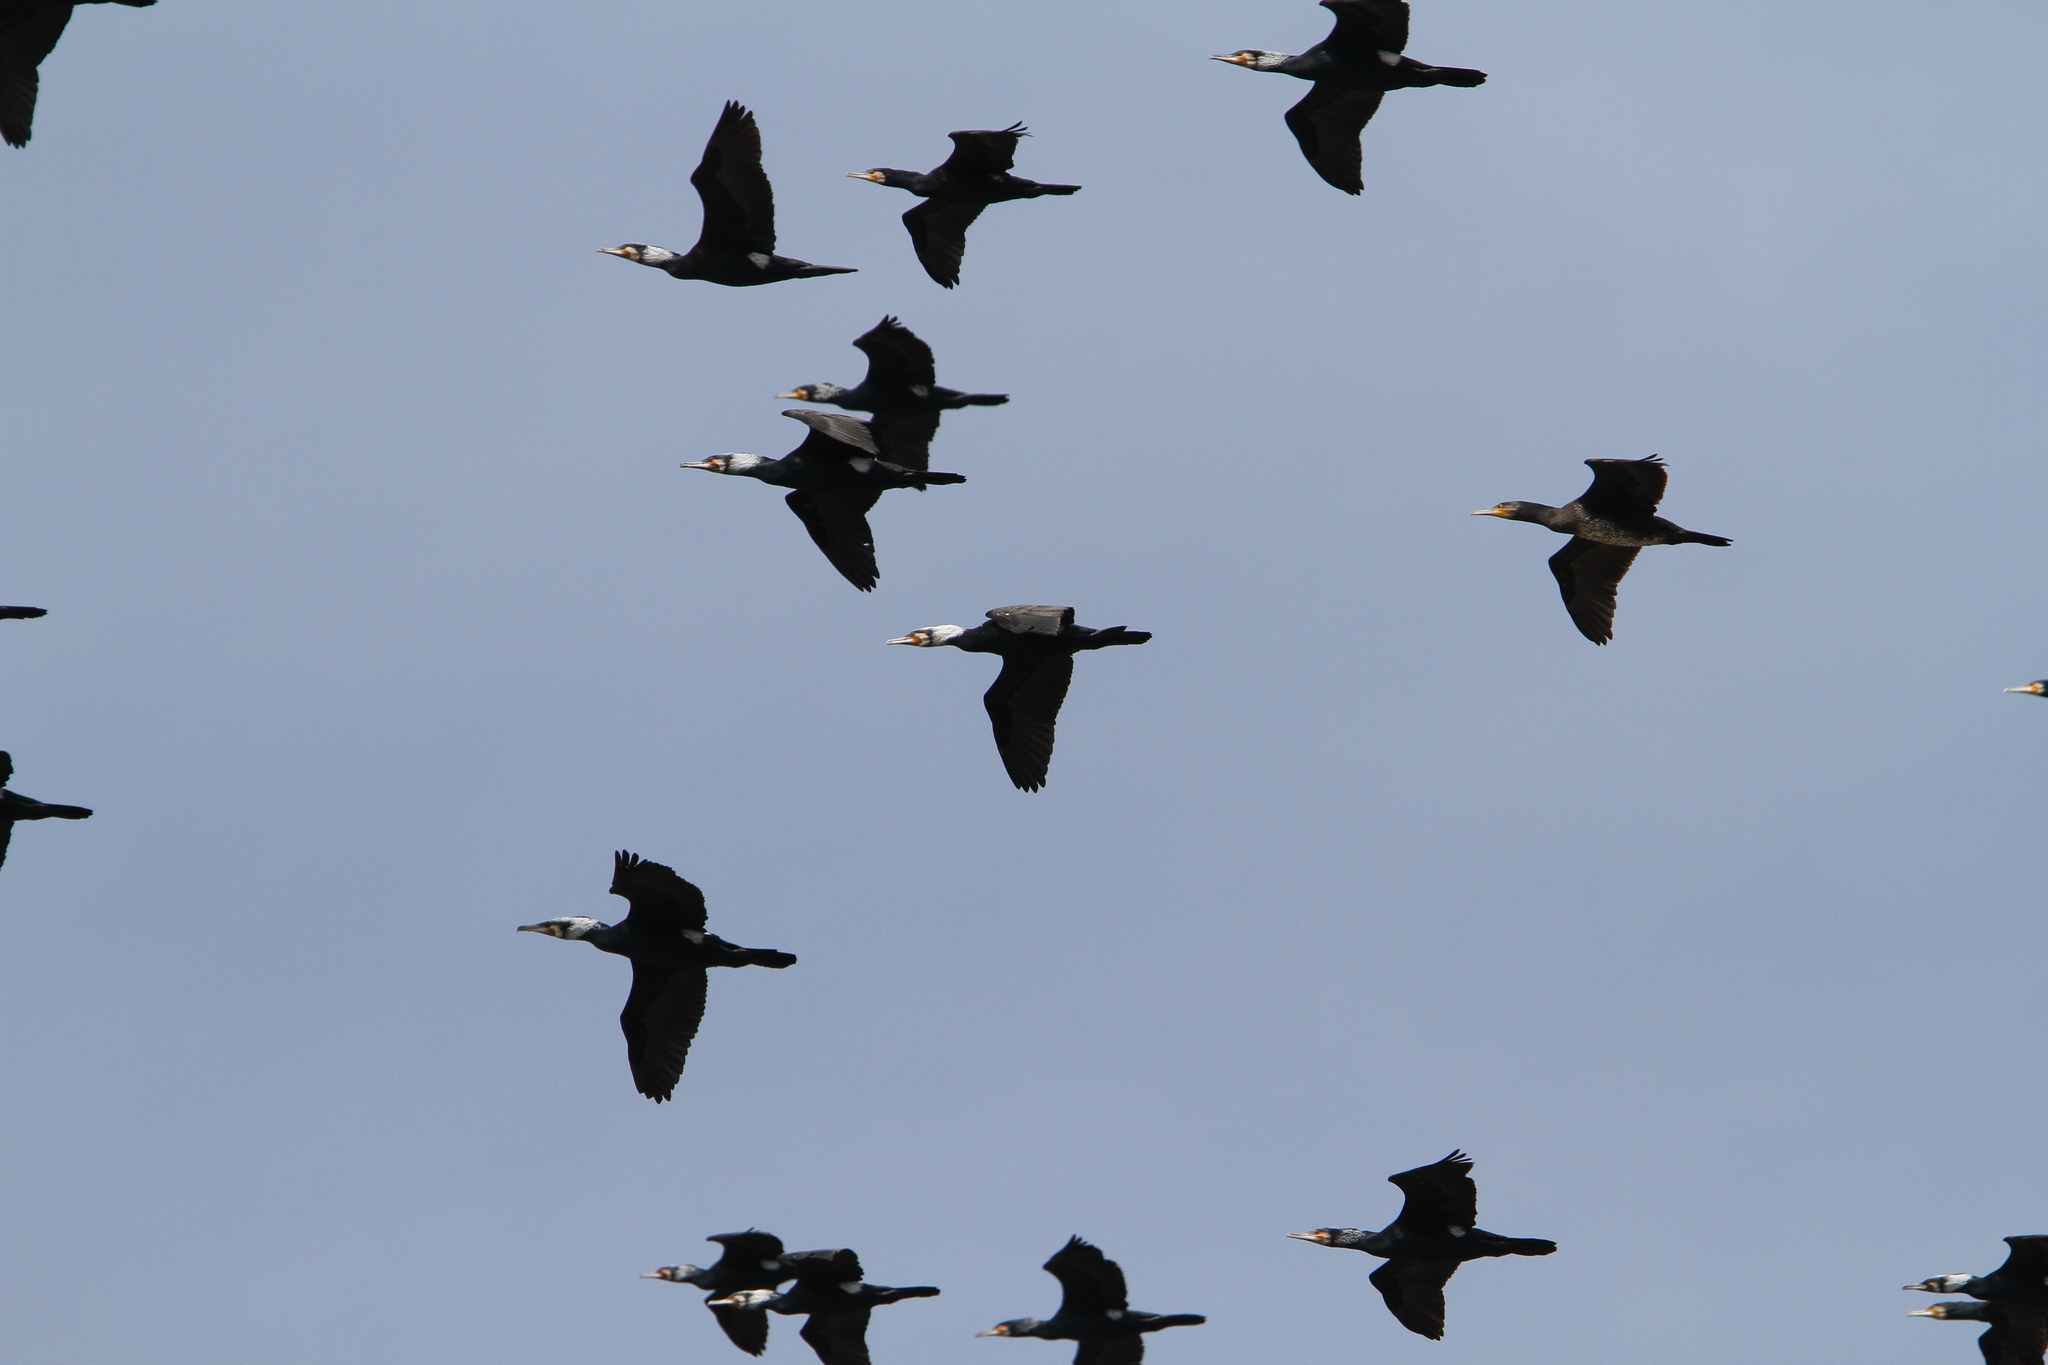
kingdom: Animalia
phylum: Chordata
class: Aves
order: Suliformes
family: Phalacrocoracidae
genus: Phalacrocorax
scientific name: Phalacrocorax carbo
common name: Great cormorant
